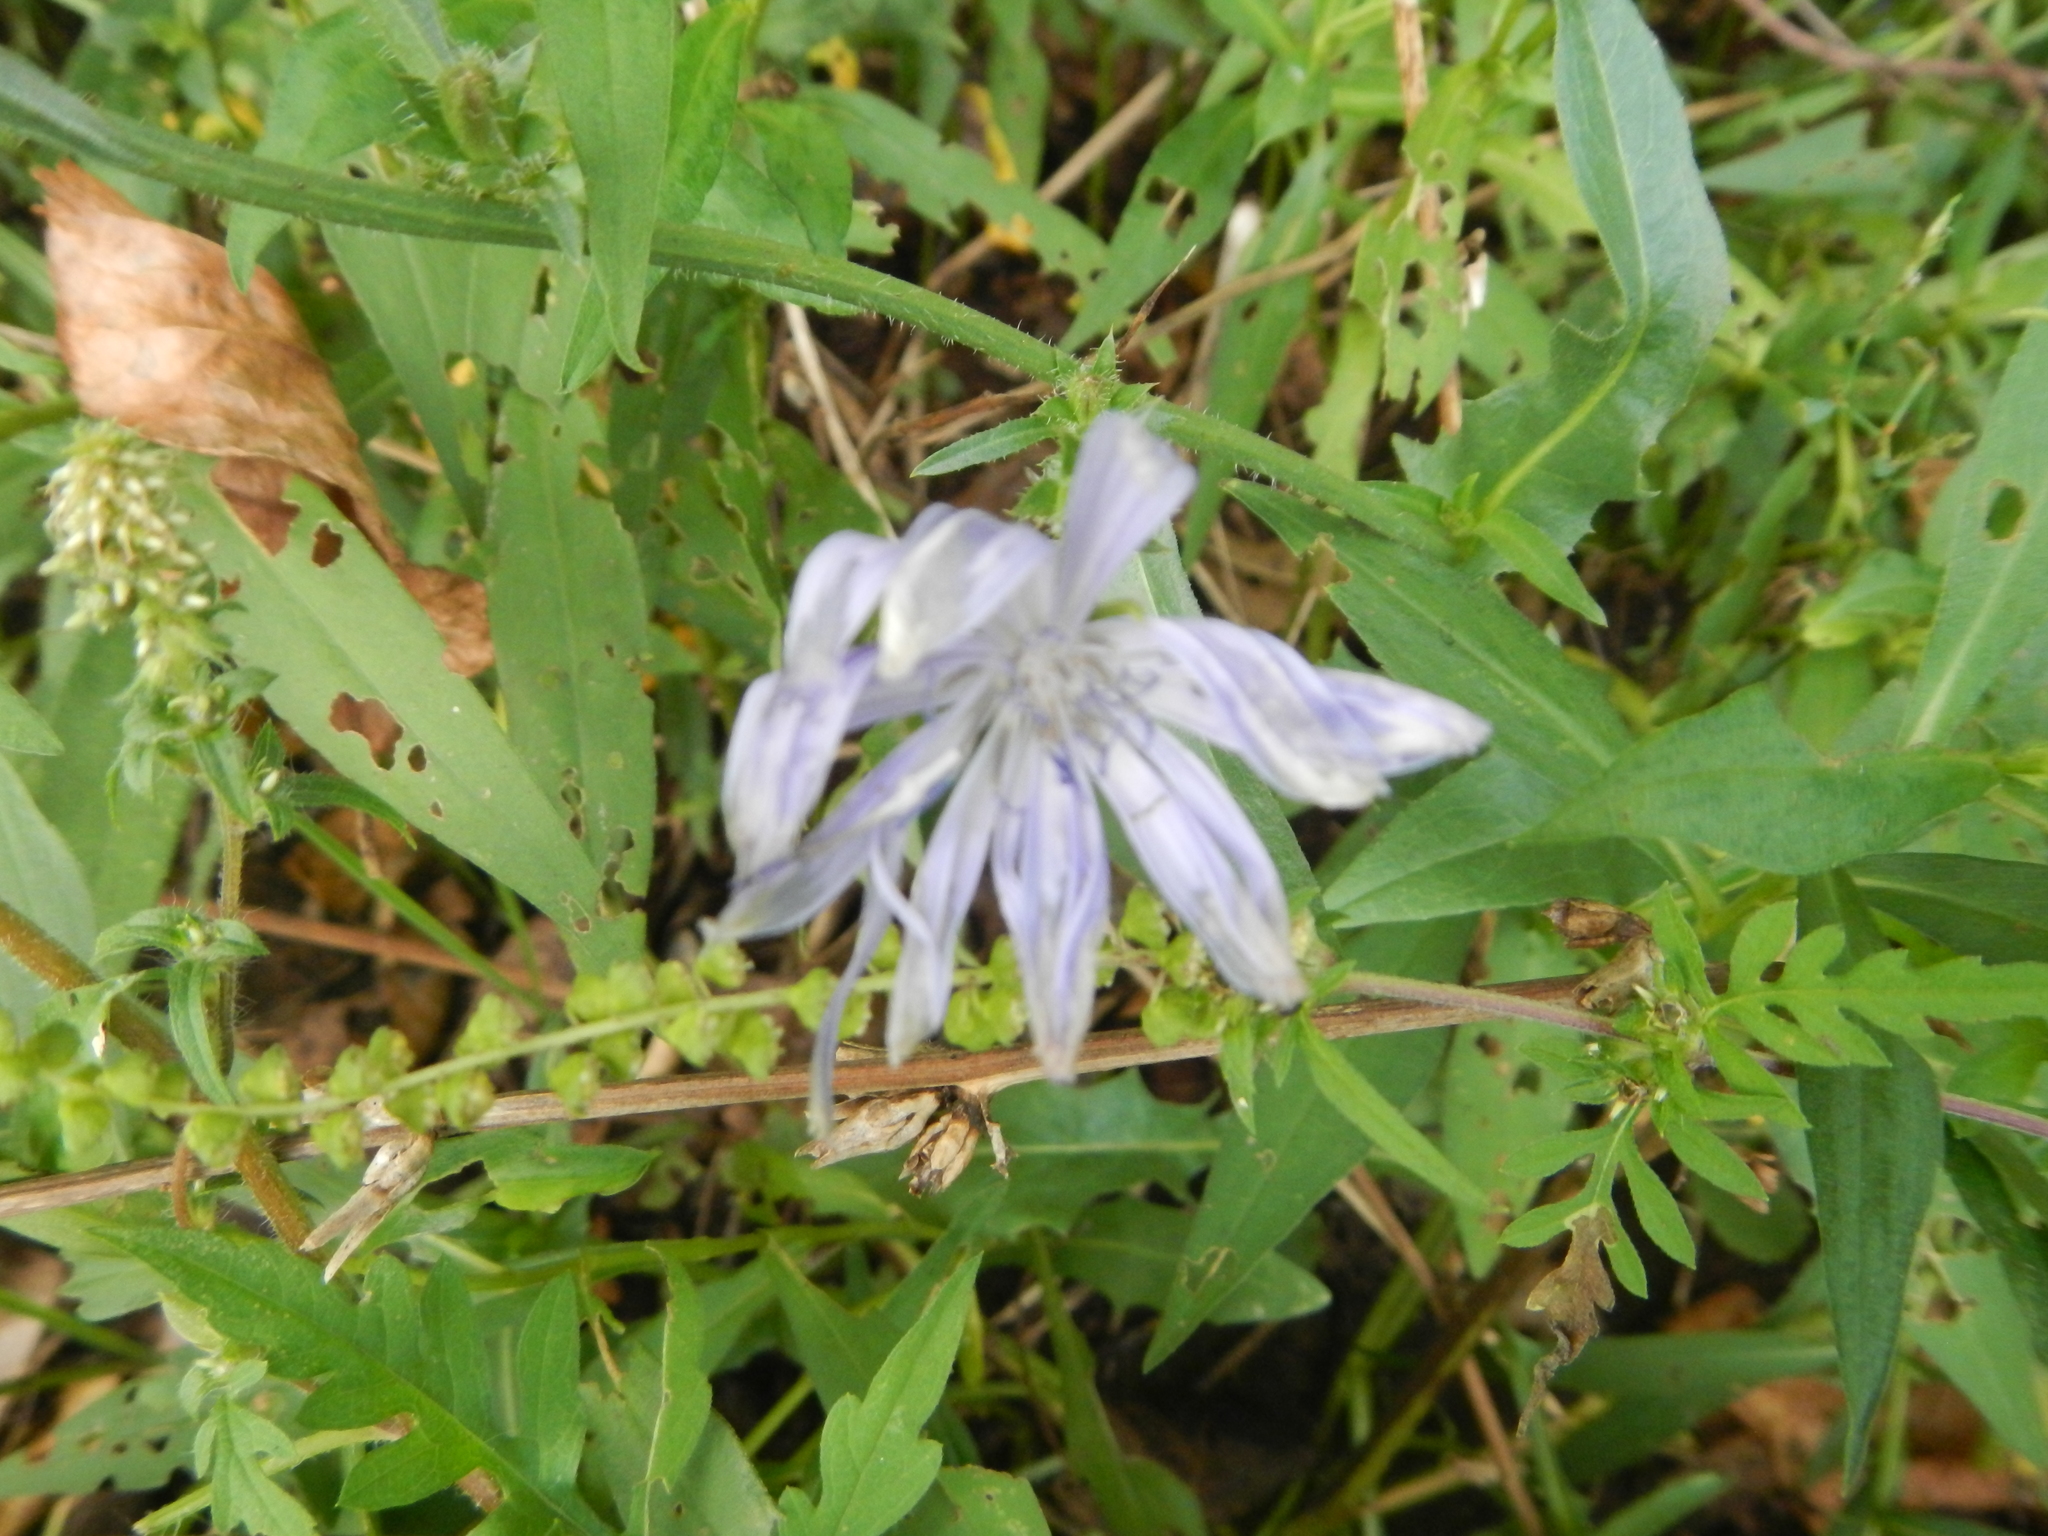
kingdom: Plantae
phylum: Tracheophyta
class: Magnoliopsida
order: Asterales
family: Asteraceae
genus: Cichorium
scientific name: Cichorium intybus
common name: Chicory
